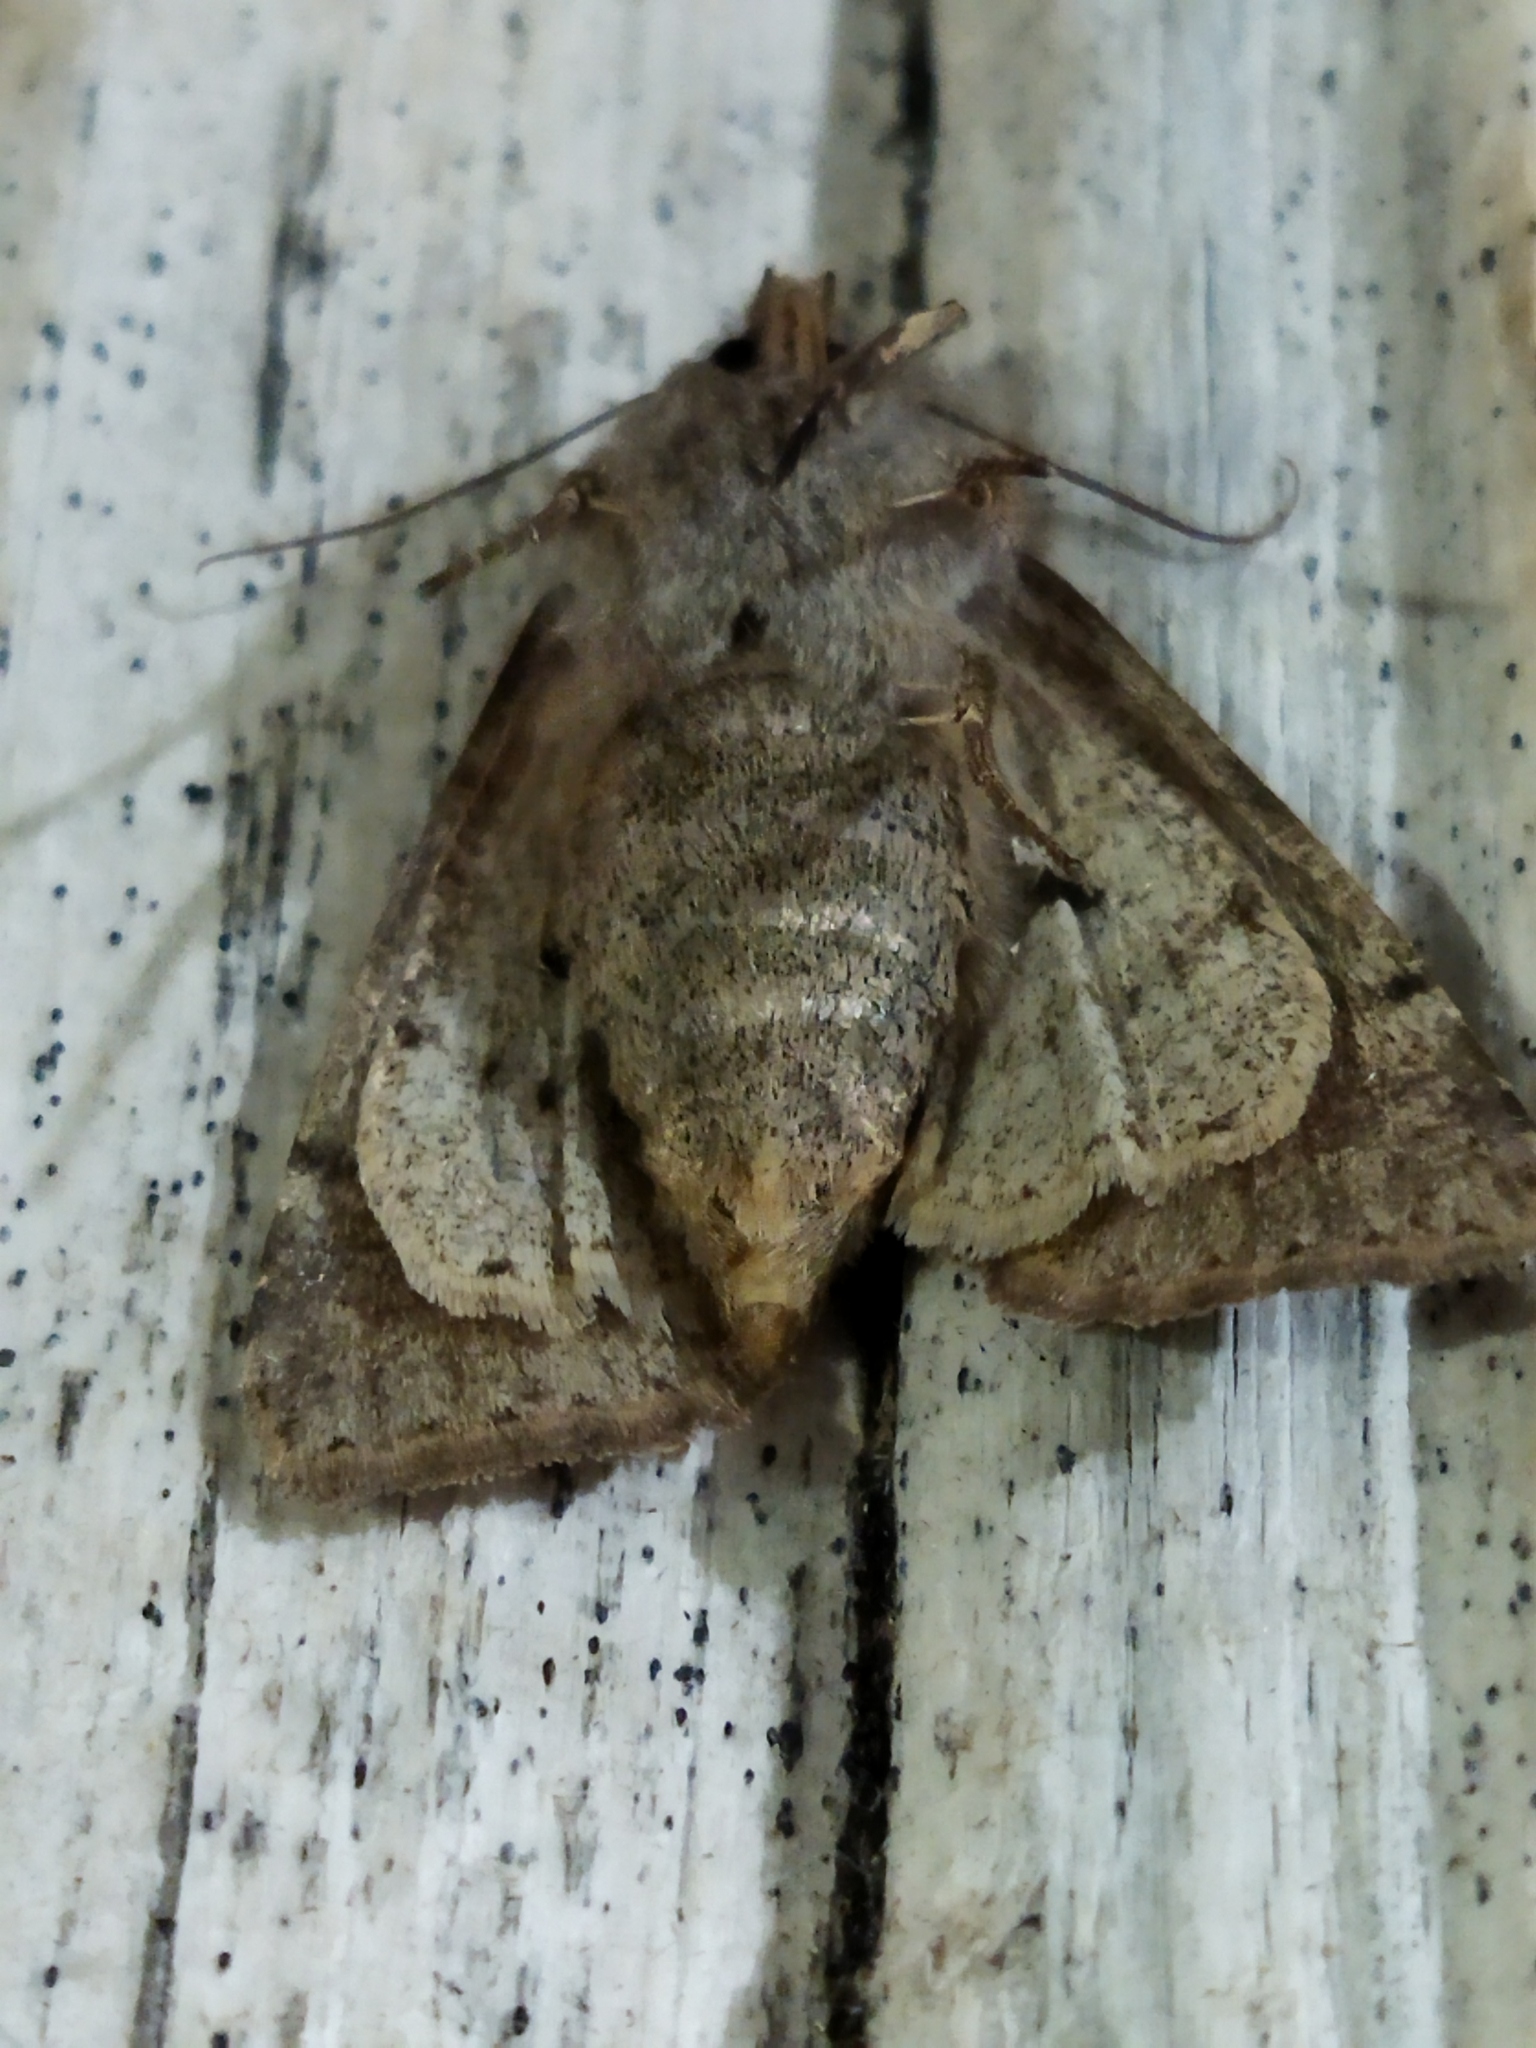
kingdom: Animalia
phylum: Arthropoda
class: Insecta
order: Lepidoptera
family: Noctuidae
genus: Orthosia
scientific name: Orthosia incerta
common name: Clouded drab
